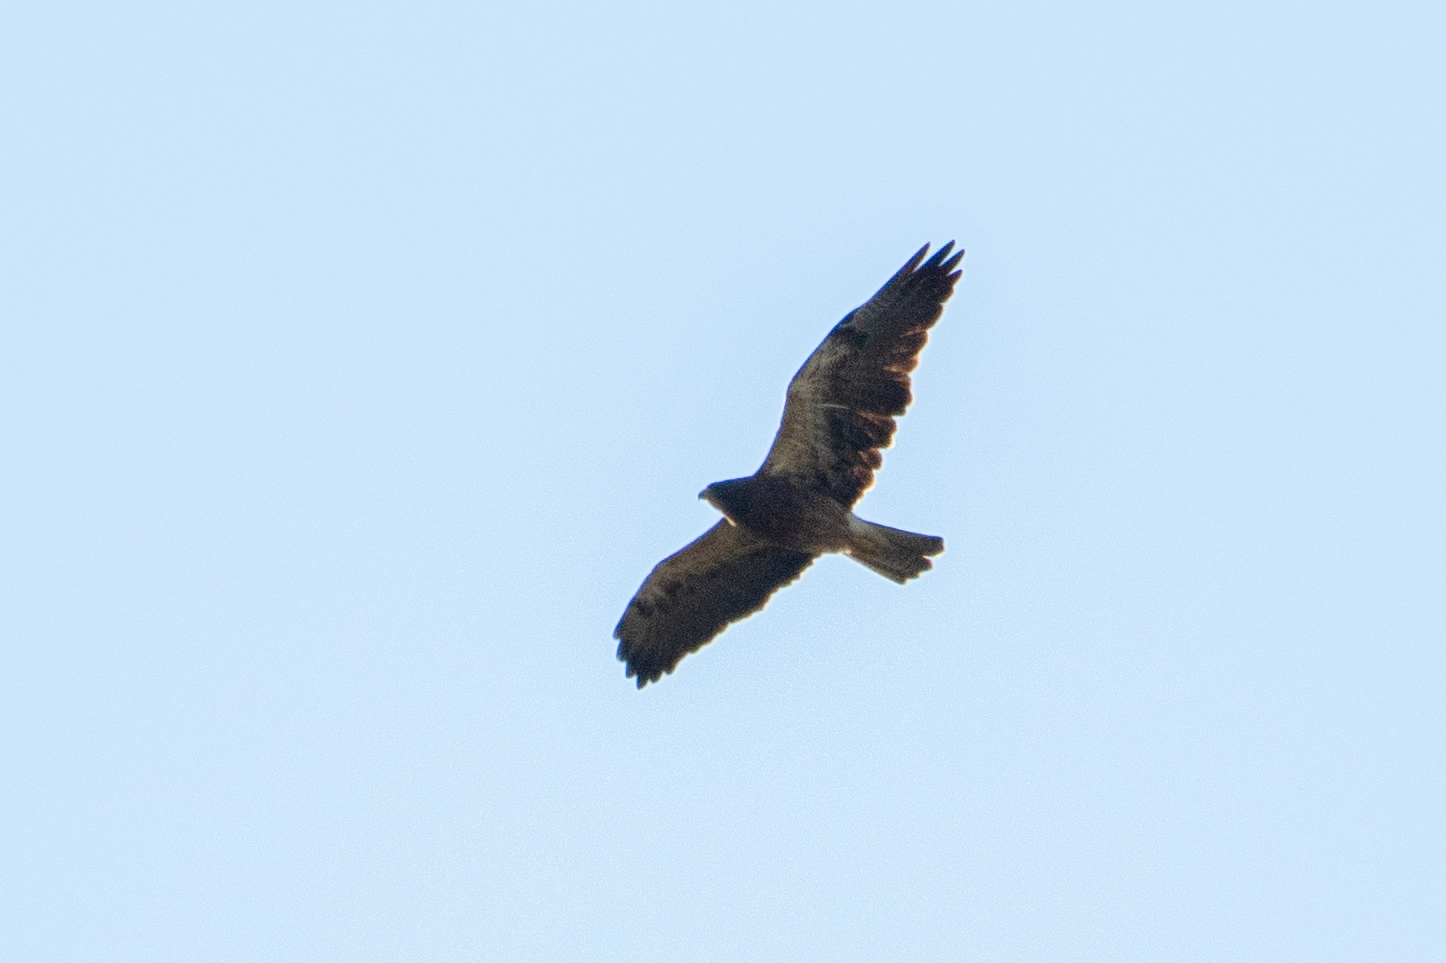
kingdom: Animalia
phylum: Chordata
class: Aves
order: Accipitriformes
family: Accipitridae
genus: Buteo
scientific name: Buteo swainsoni
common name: Swainson's hawk
